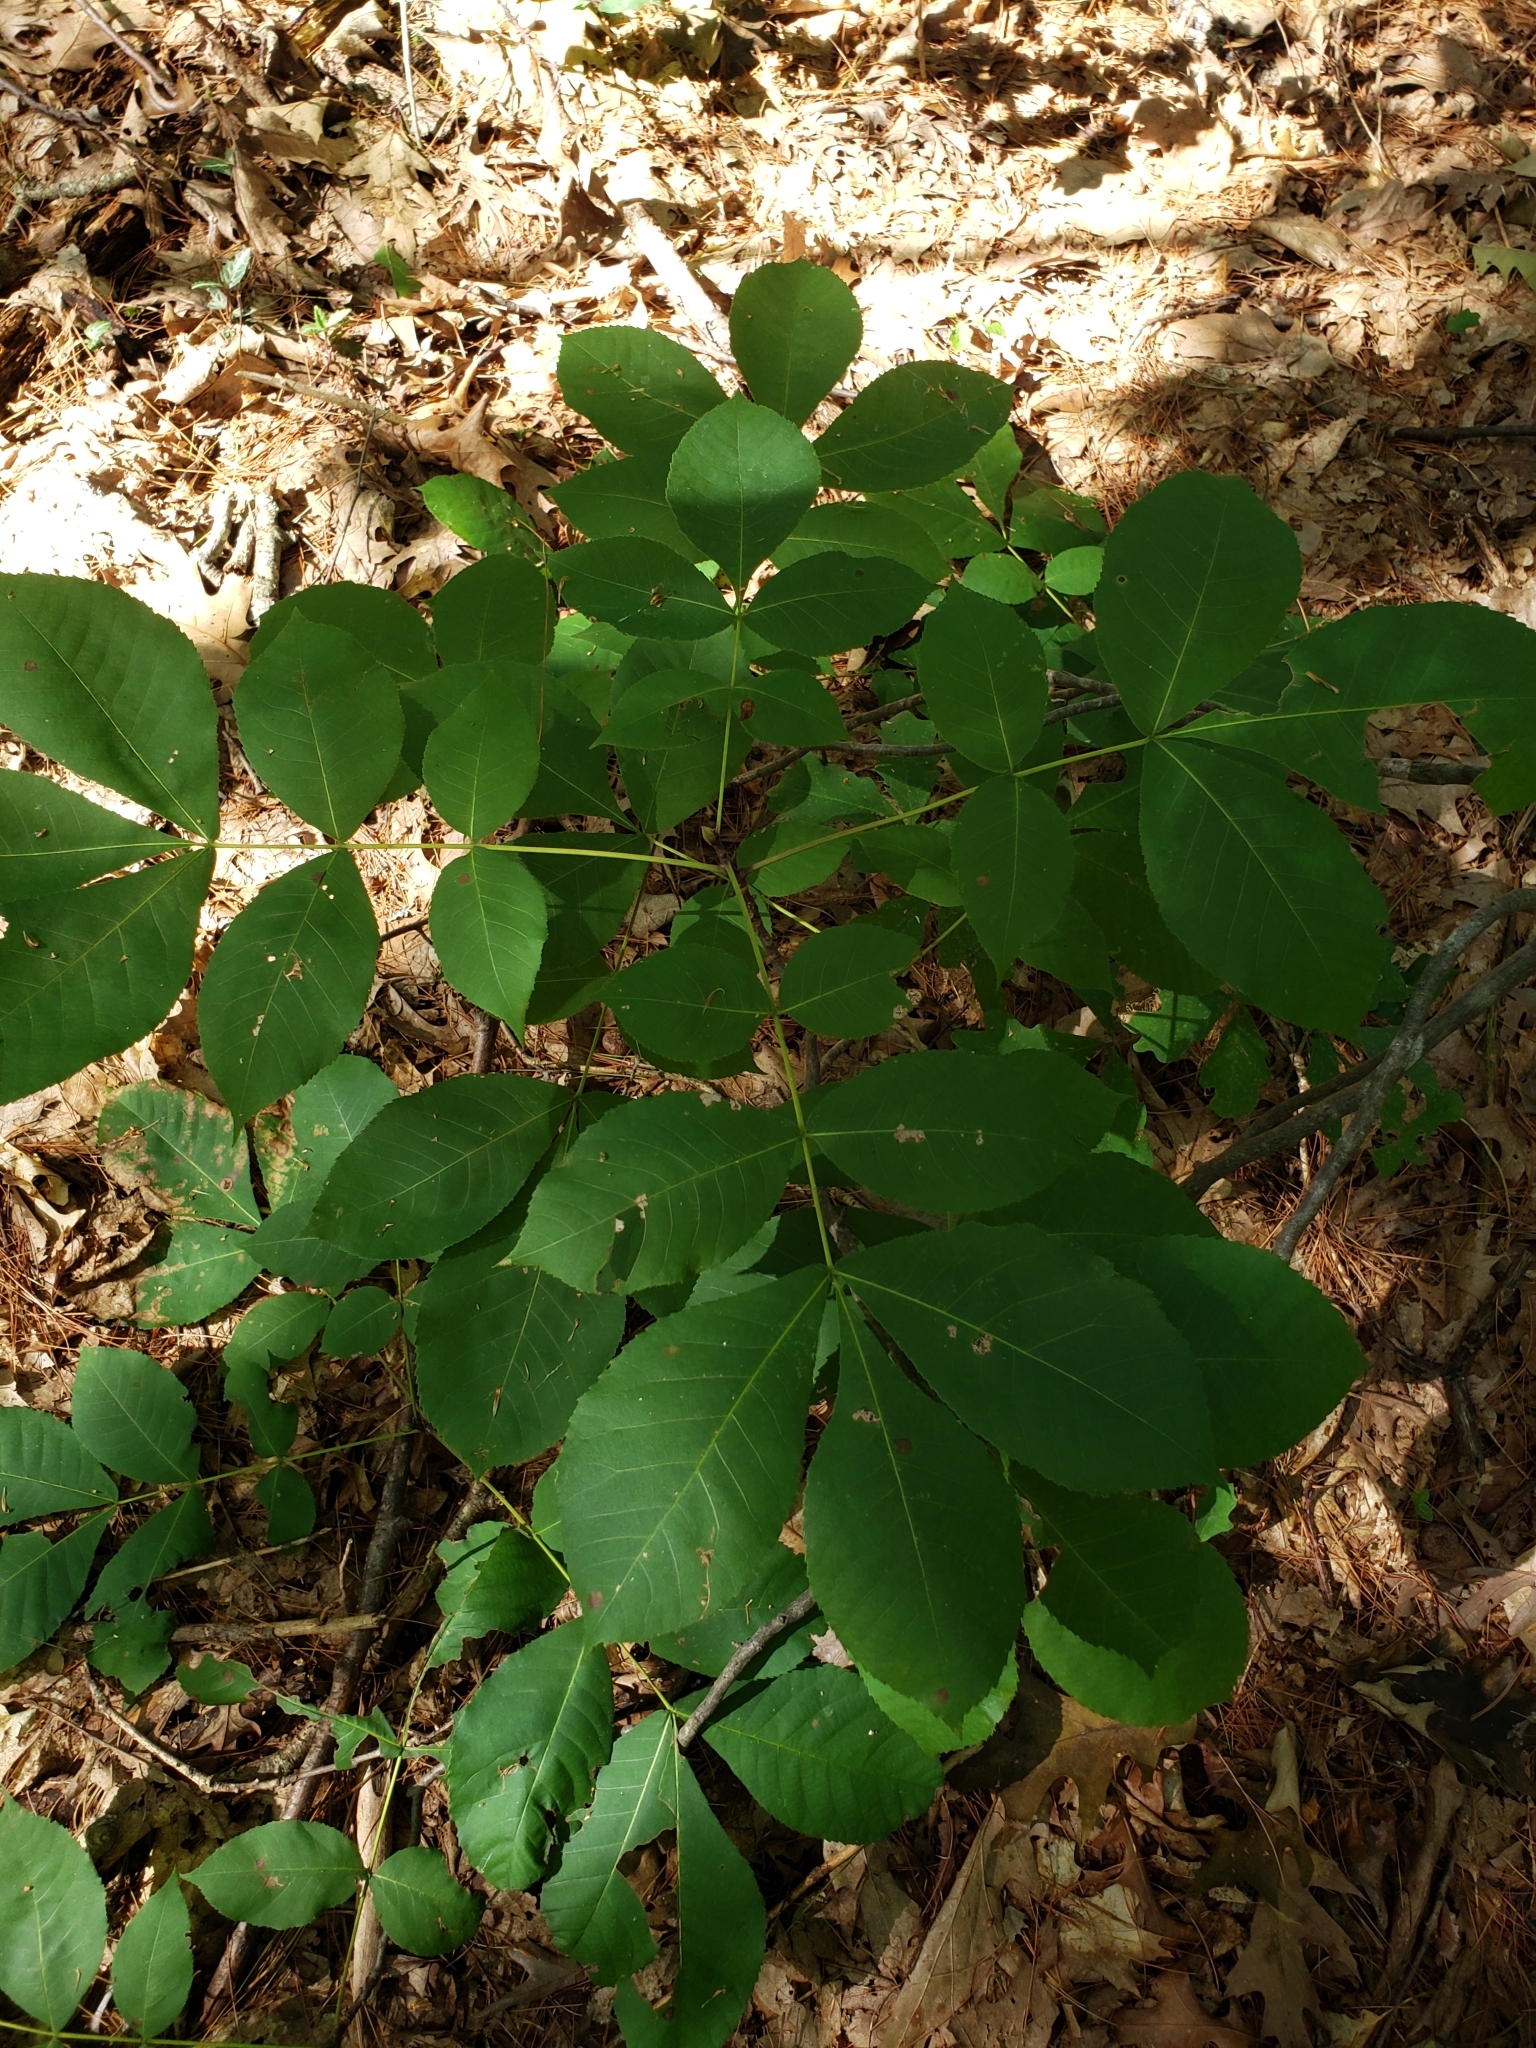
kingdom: Plantae
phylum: Tracheophyta
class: Magnoliopsida
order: Fagales
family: Juglandaceae
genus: Carya
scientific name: Carya
